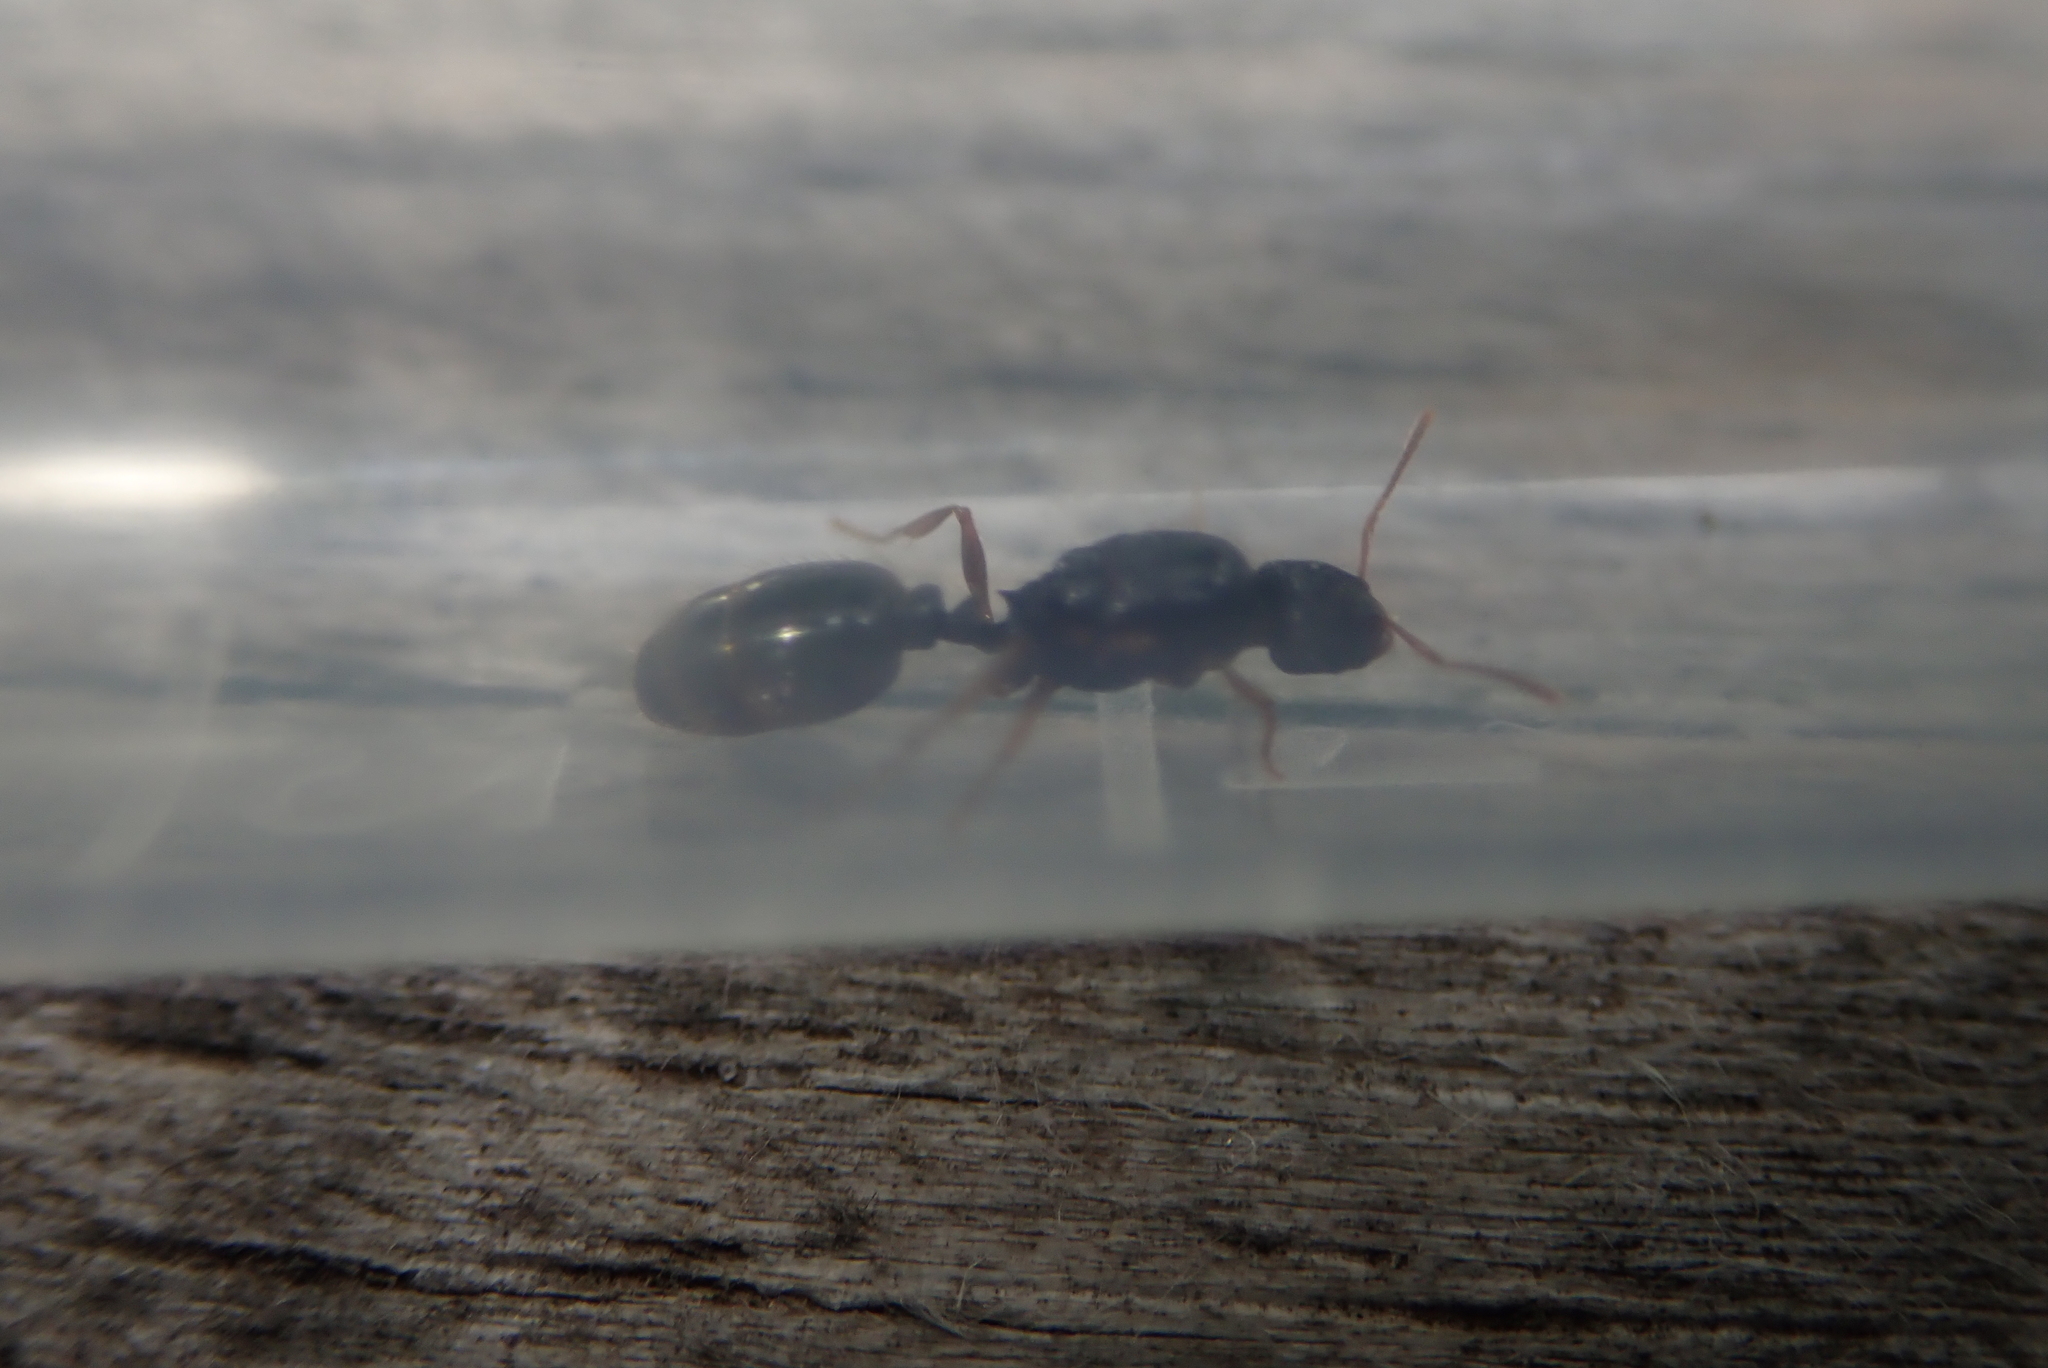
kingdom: Animalia
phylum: Arthropoda
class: Insecta
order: Hymenoptera
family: Formicidae
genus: Tetramorium
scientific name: Tetramorium immigrans
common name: Pavement ant
